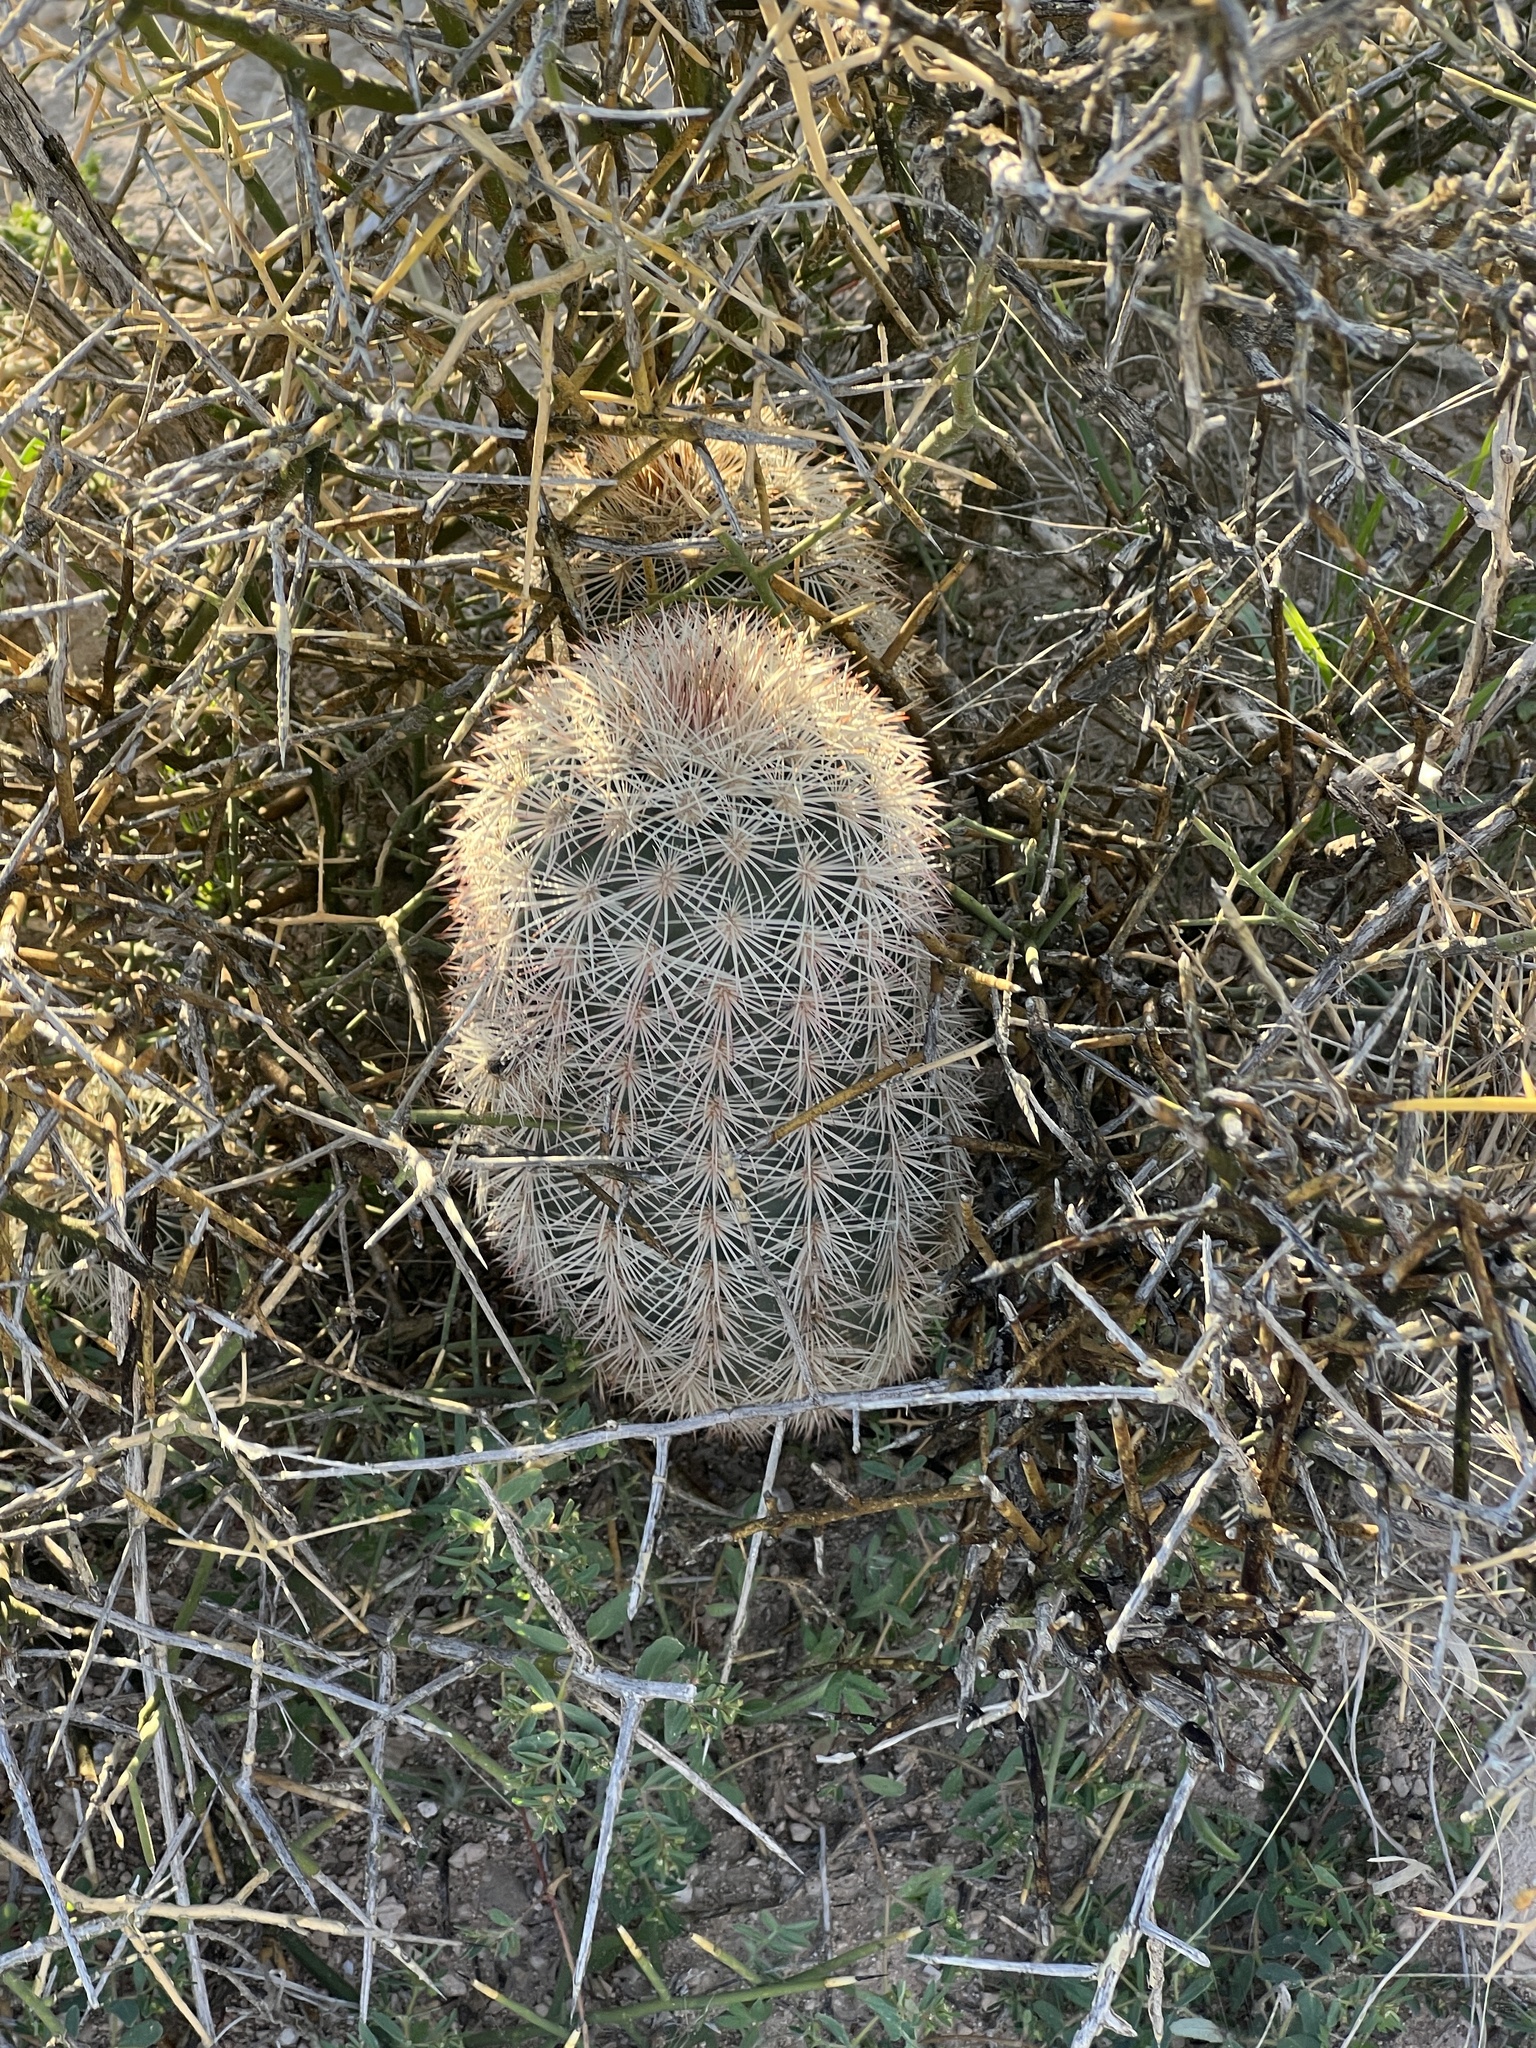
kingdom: Plantae
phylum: Tracheophyta
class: Magnoliopsida
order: Caryophyllales
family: Cactaceae
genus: Echinocereus
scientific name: Echinocereus dasyacanthus
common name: Spiny hedgehog cactus
